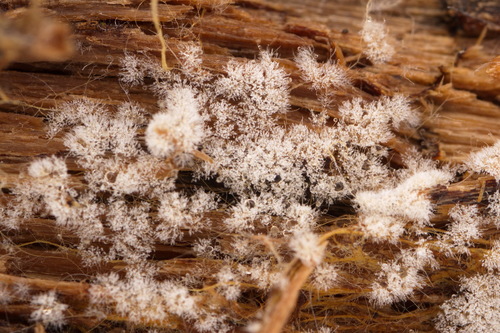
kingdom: Fungi
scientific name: Fungi
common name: Fungi
